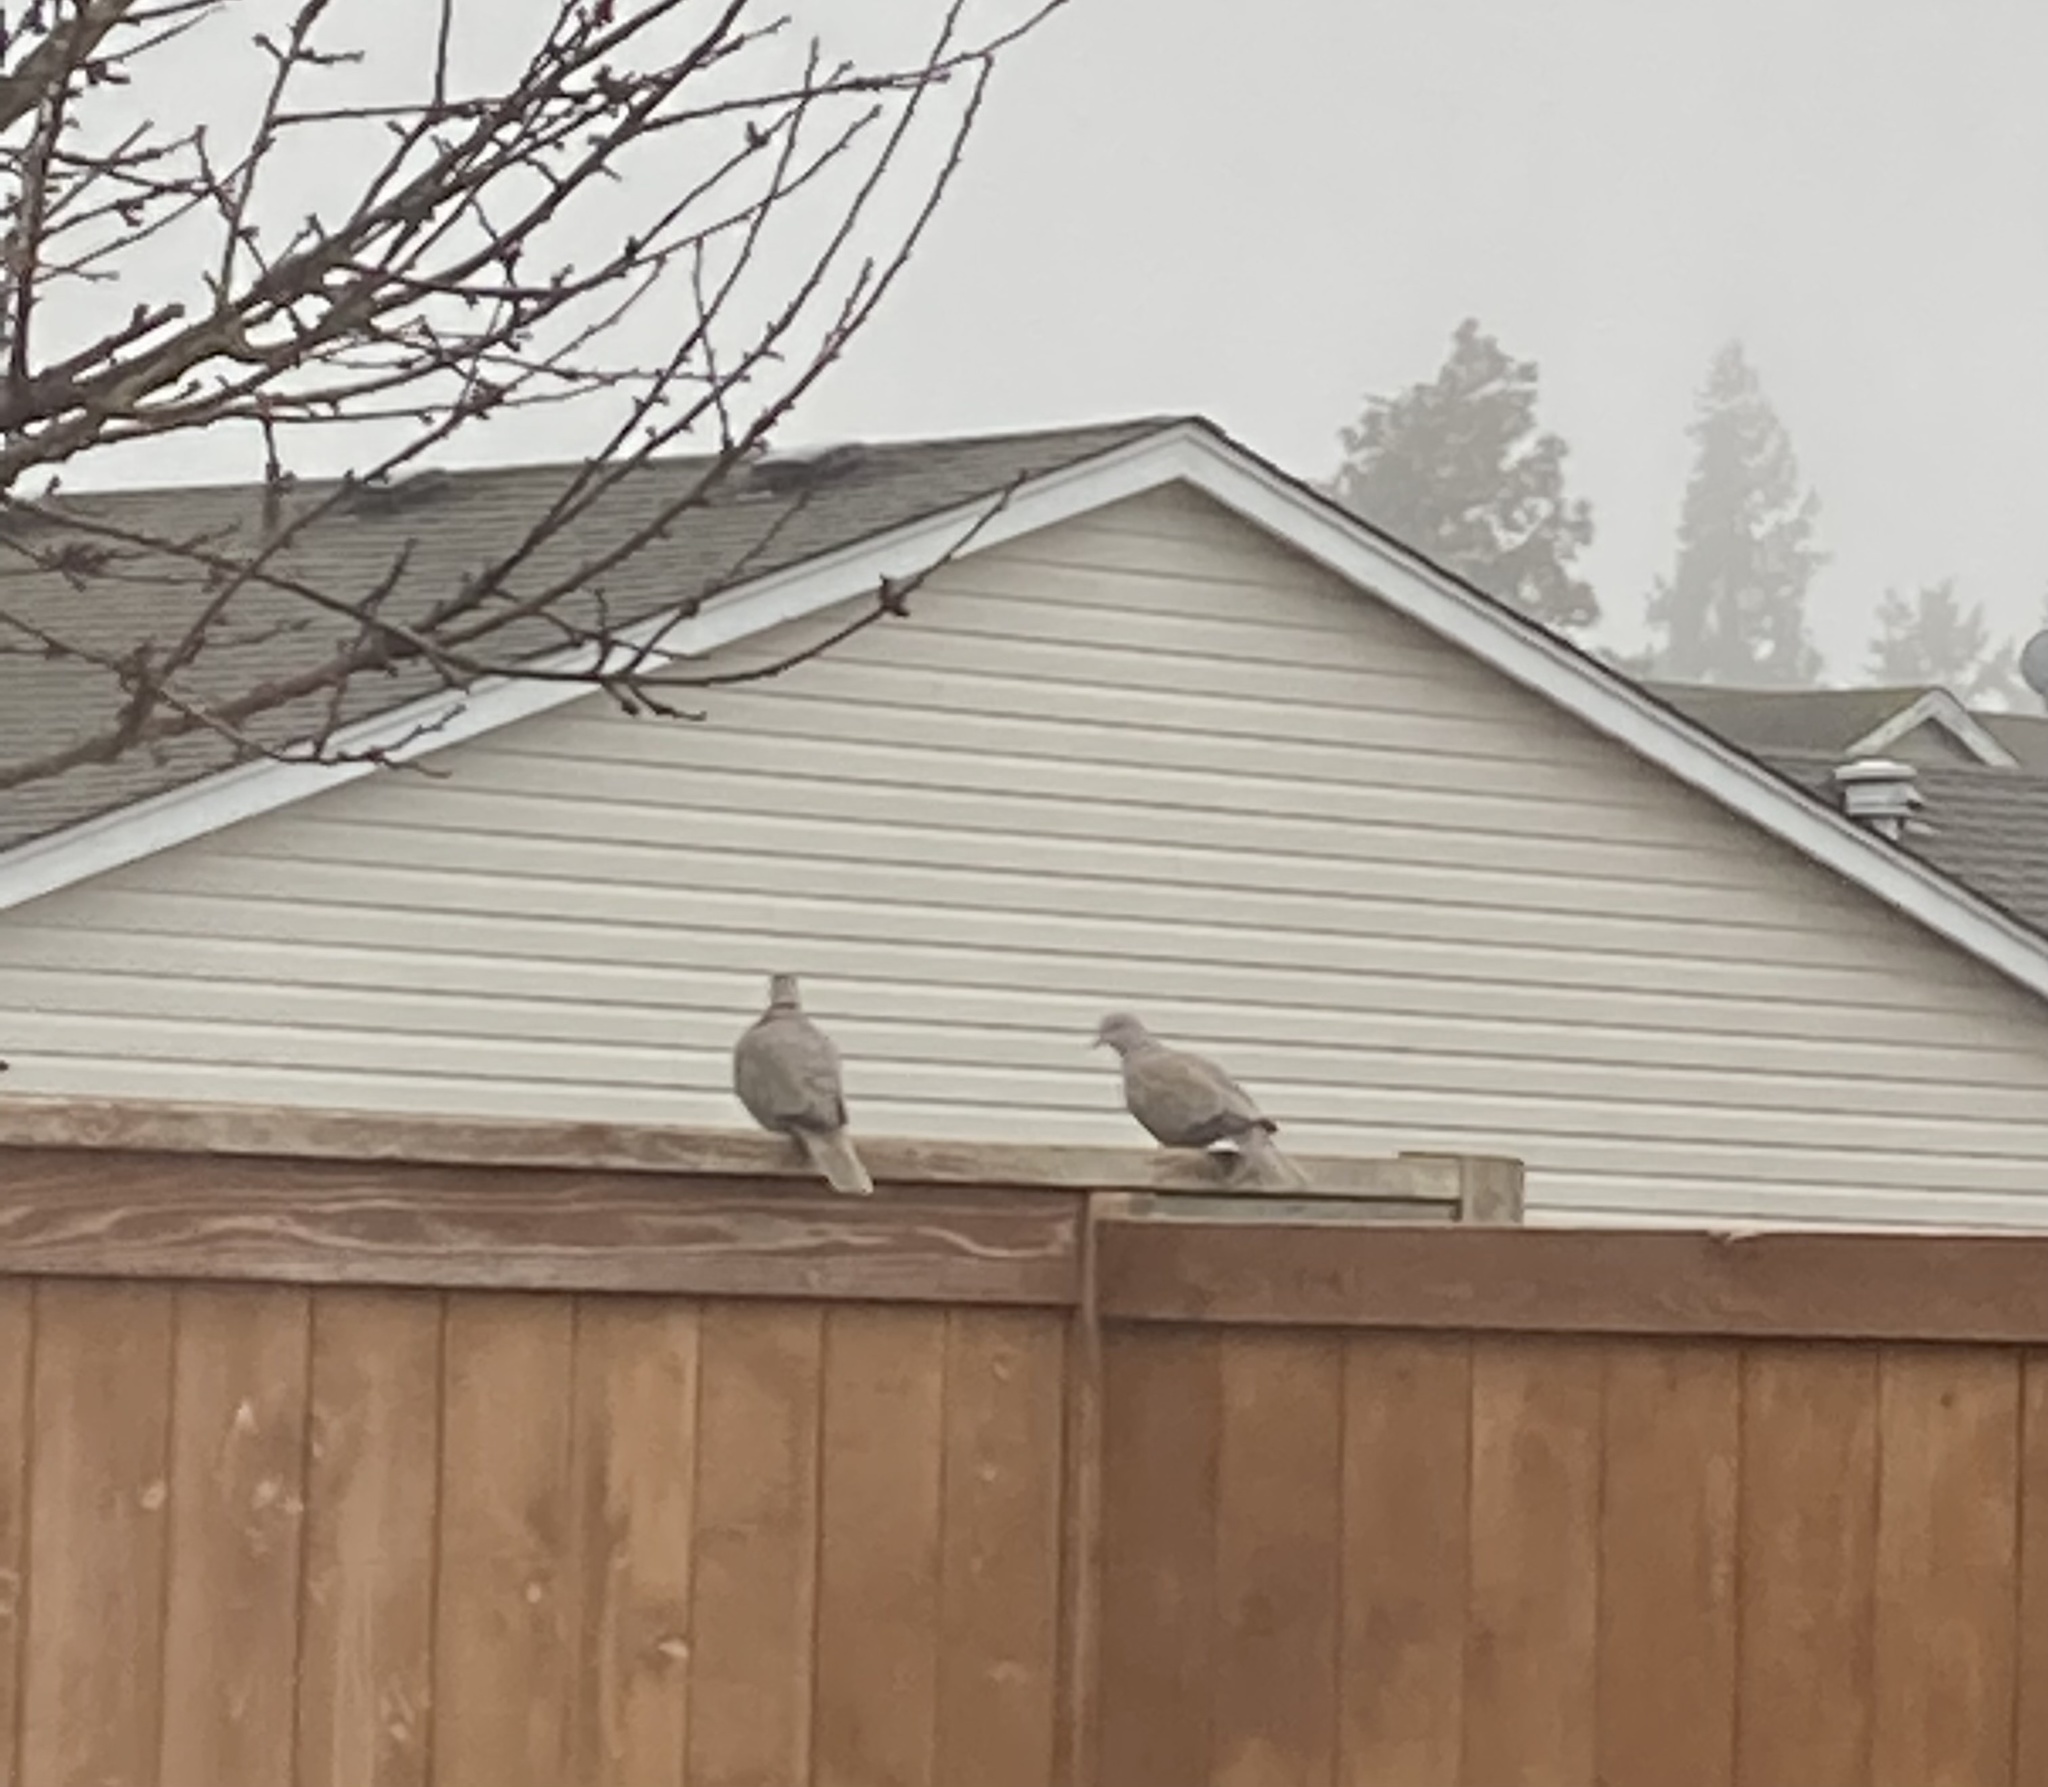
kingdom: Animalia
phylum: Chordata
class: Aves
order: Columbiformes
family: Columbidae
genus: Streptopelia
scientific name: Streptopelia decaocto
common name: Eurasian collared dove
